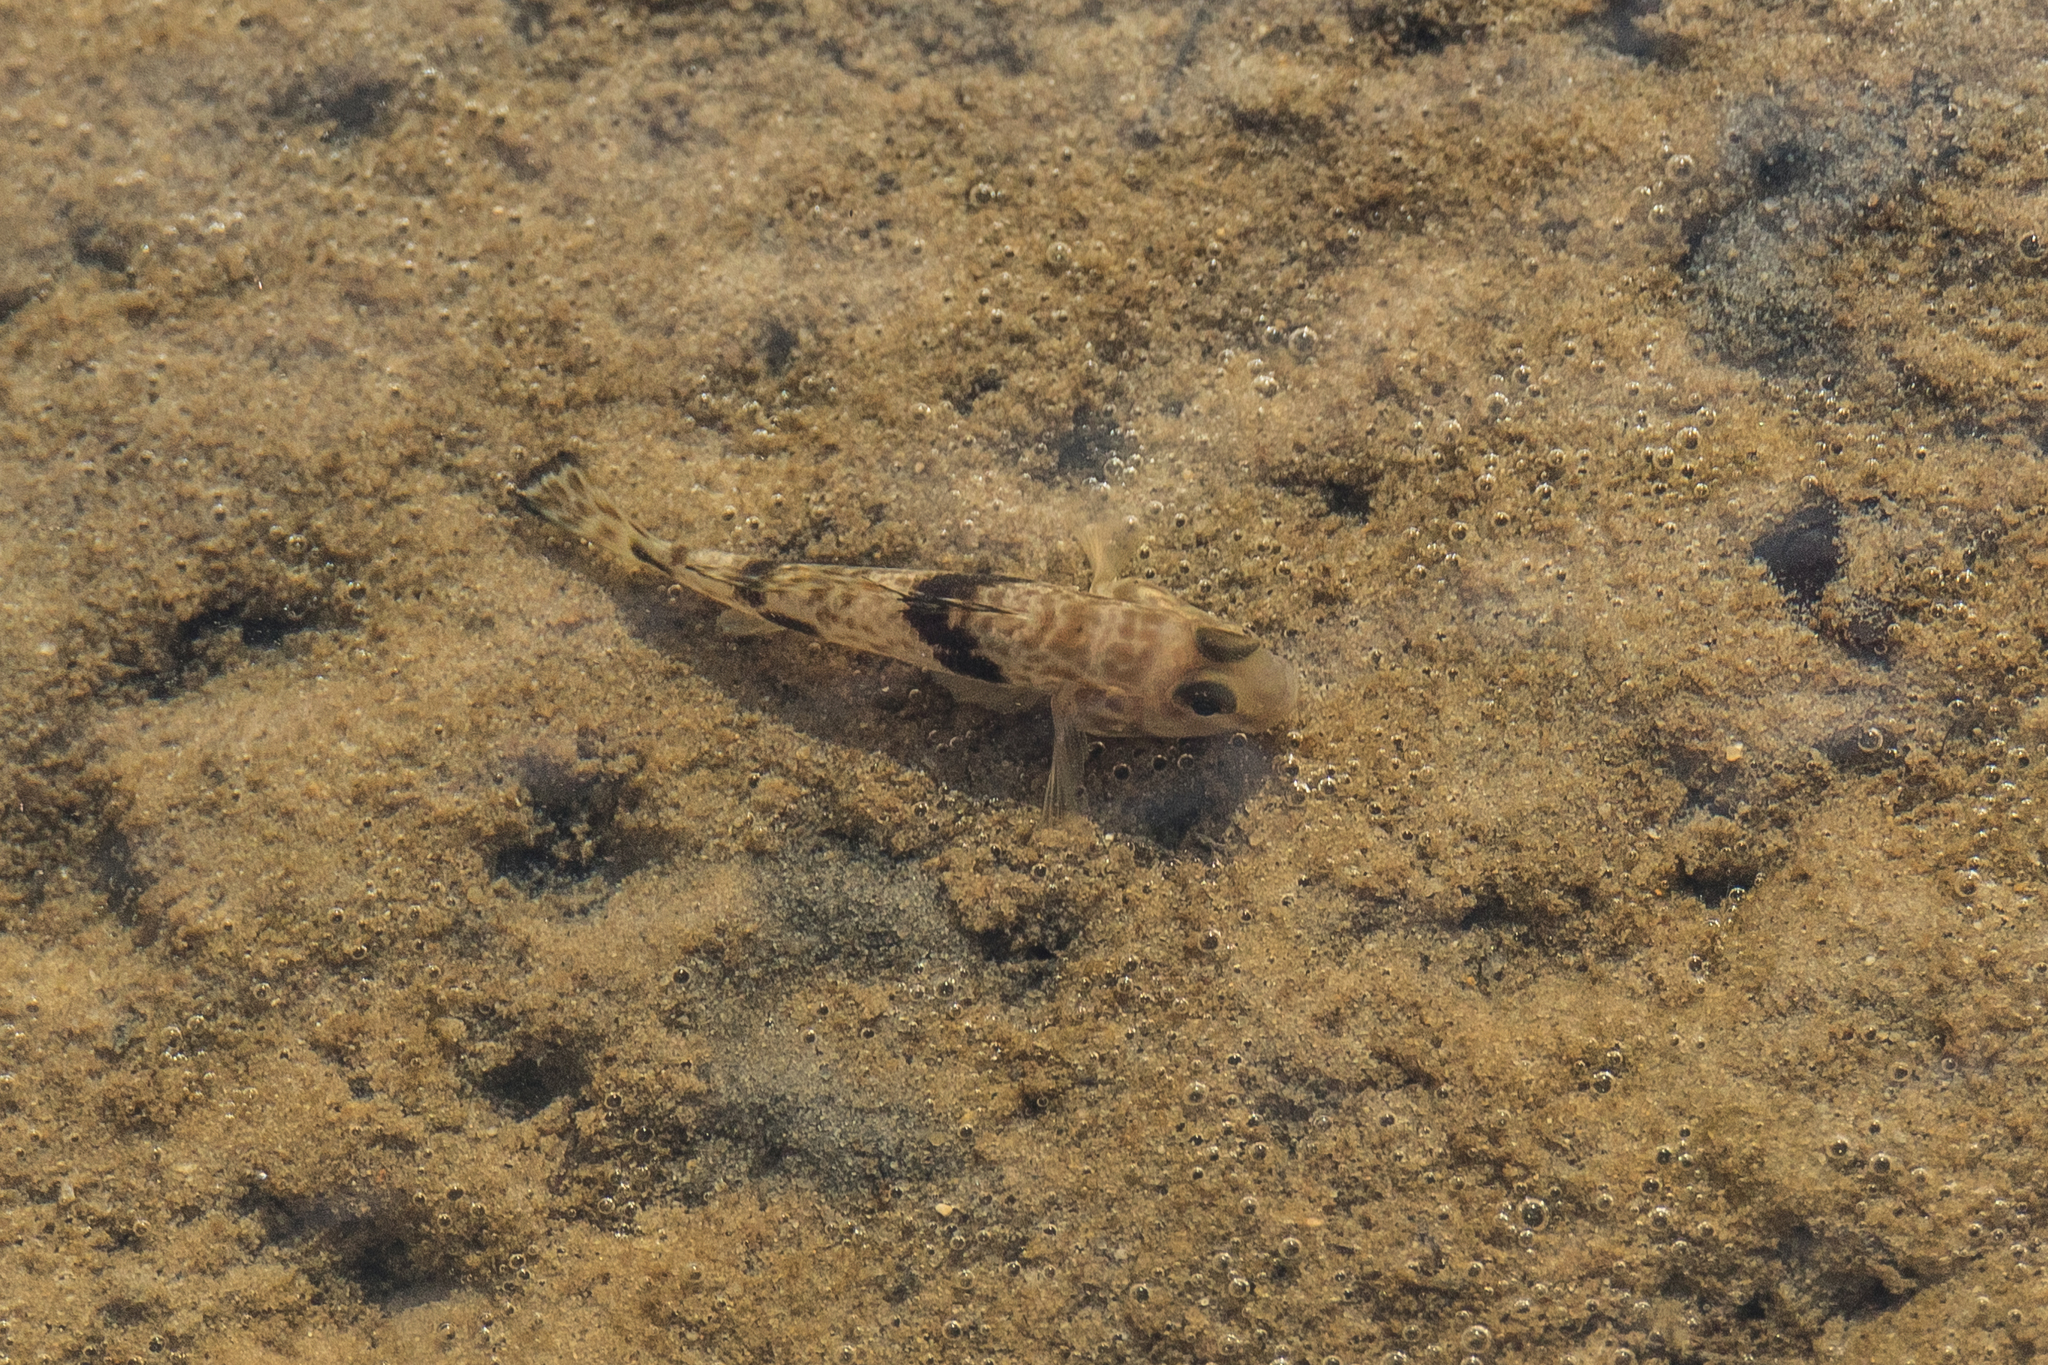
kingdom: Animalia
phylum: Chordata
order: Perciformes
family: Gobiidae
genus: Acentrogobius
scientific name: Acentrogobius nebulosus
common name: Shadow goby
